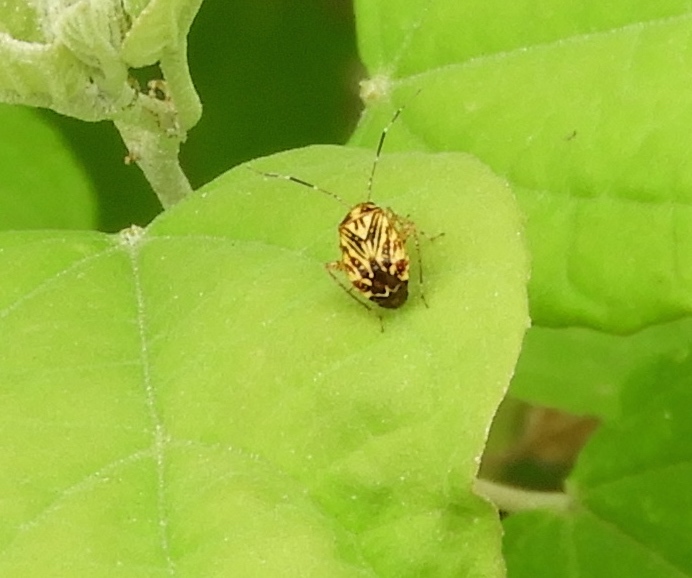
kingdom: Animalia
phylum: Arthropoda
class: Insecta
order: Hemiptera
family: Miridae
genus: Taedia
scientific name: Taedia
